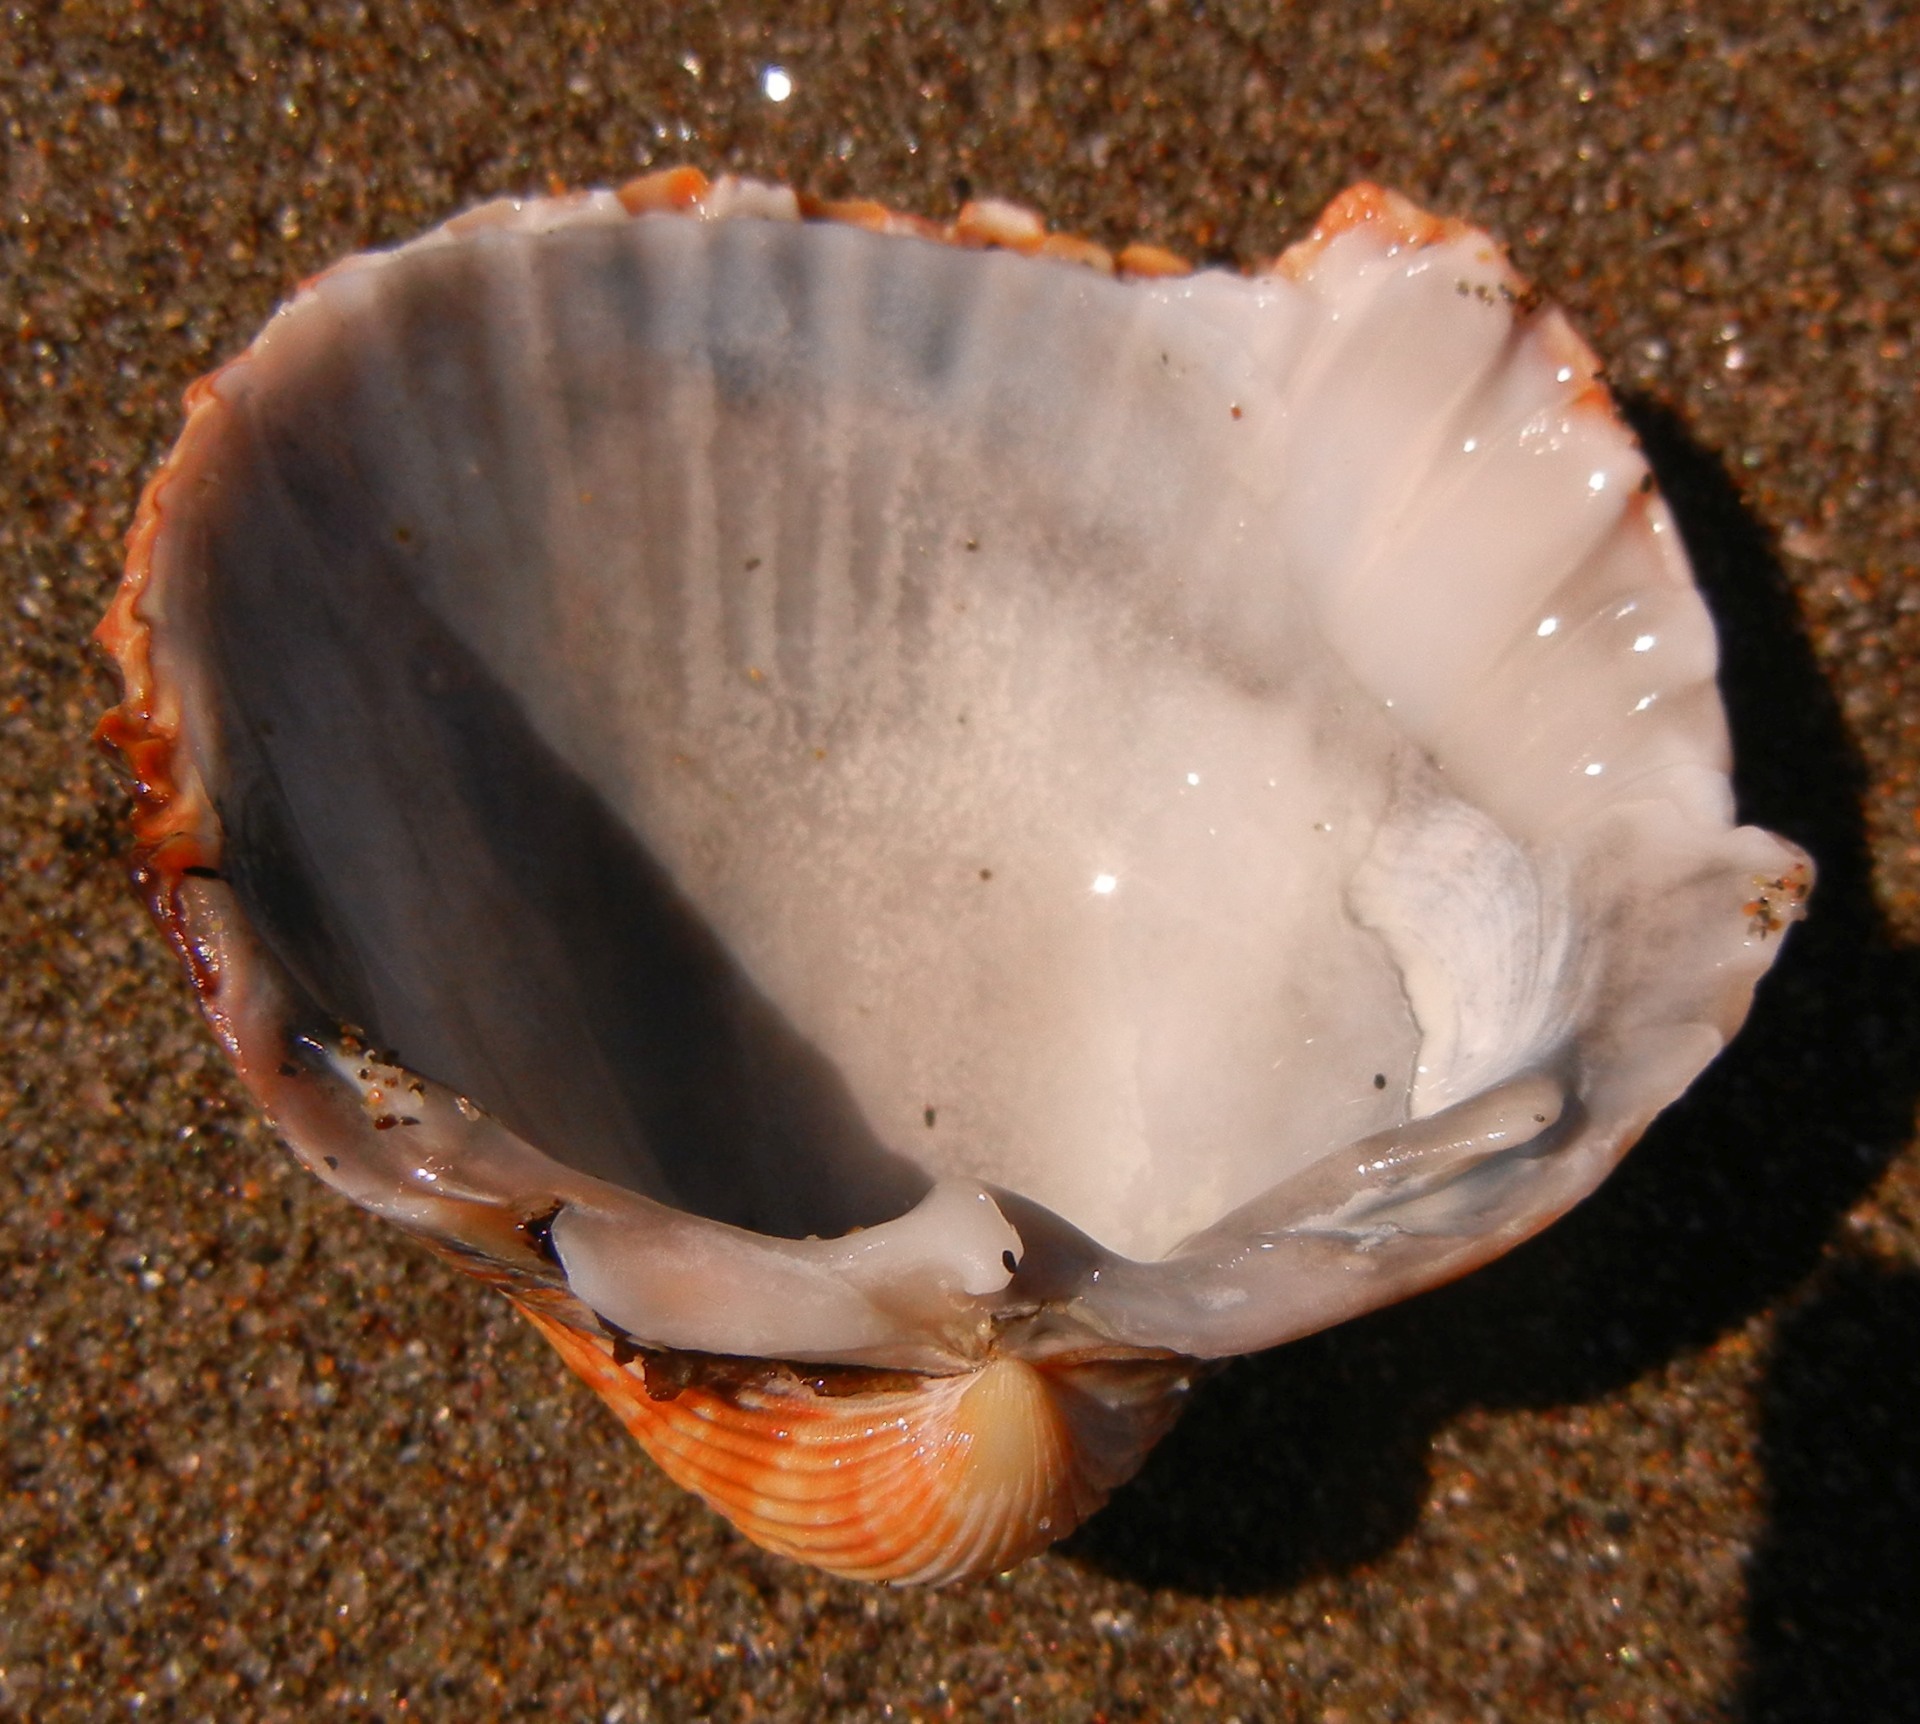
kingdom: Animalia
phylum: Mollusca
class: Bivalvia
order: Cardiida
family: Cardiidae
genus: Acanthocardia
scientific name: Acanthocardia echinata
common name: Prickly cockle
